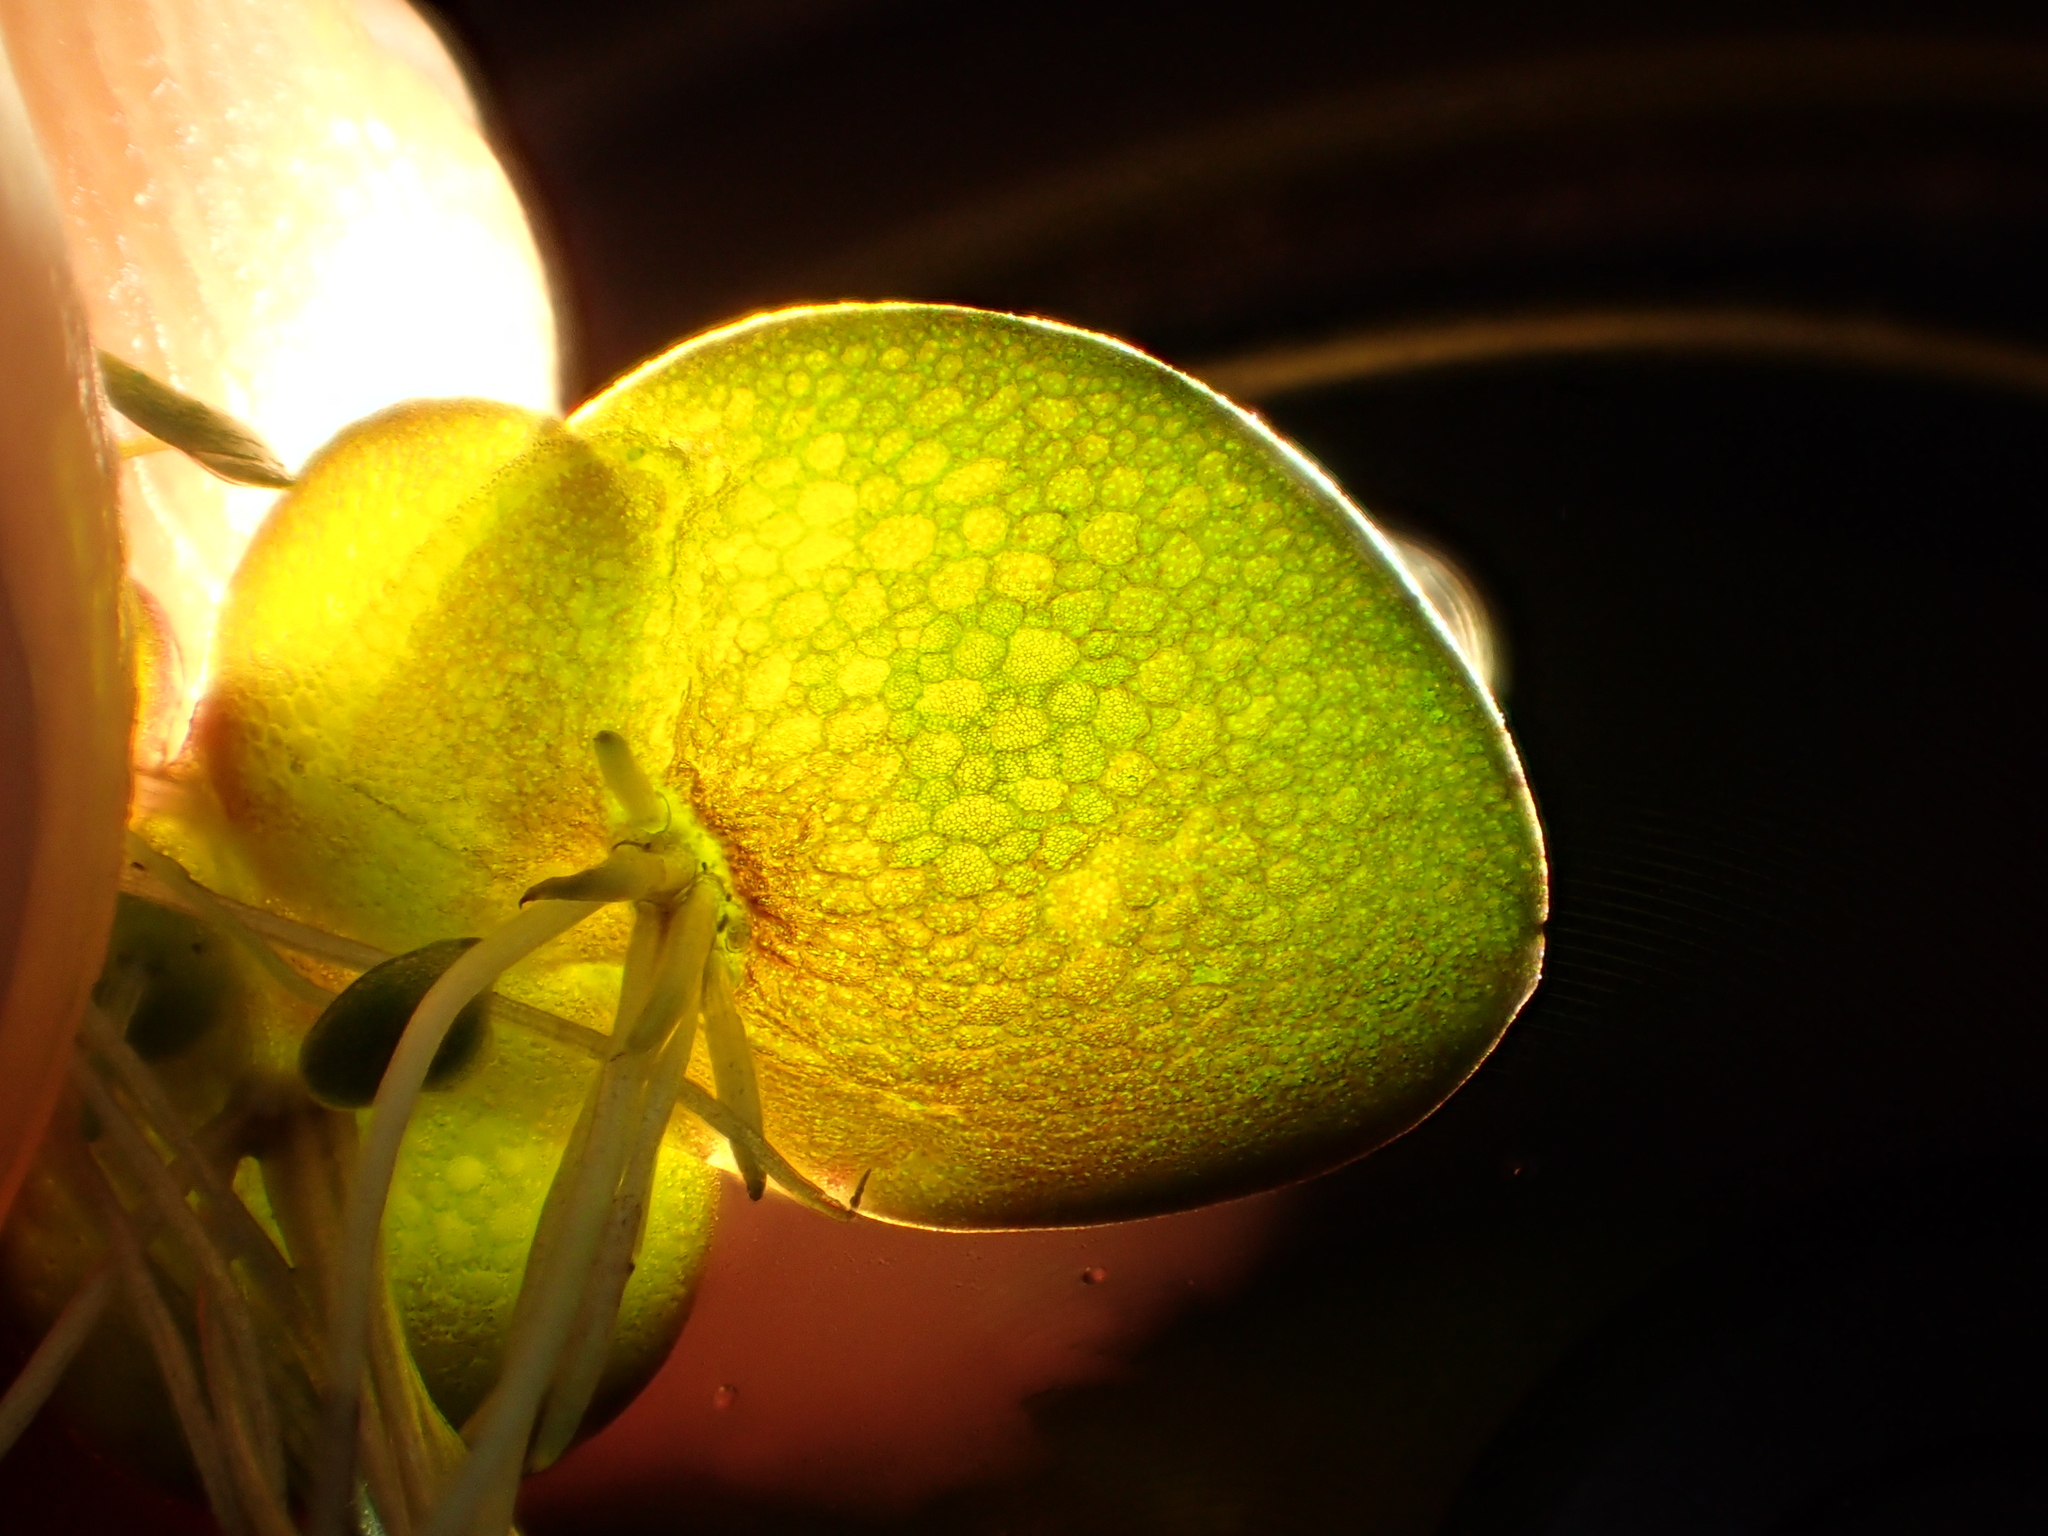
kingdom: Plantae
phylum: Tracheophyta
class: Liliopsida
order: Alismatales
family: Araceae
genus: Spirodela
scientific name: Spirodela polyrhiza
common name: Great duckweed
